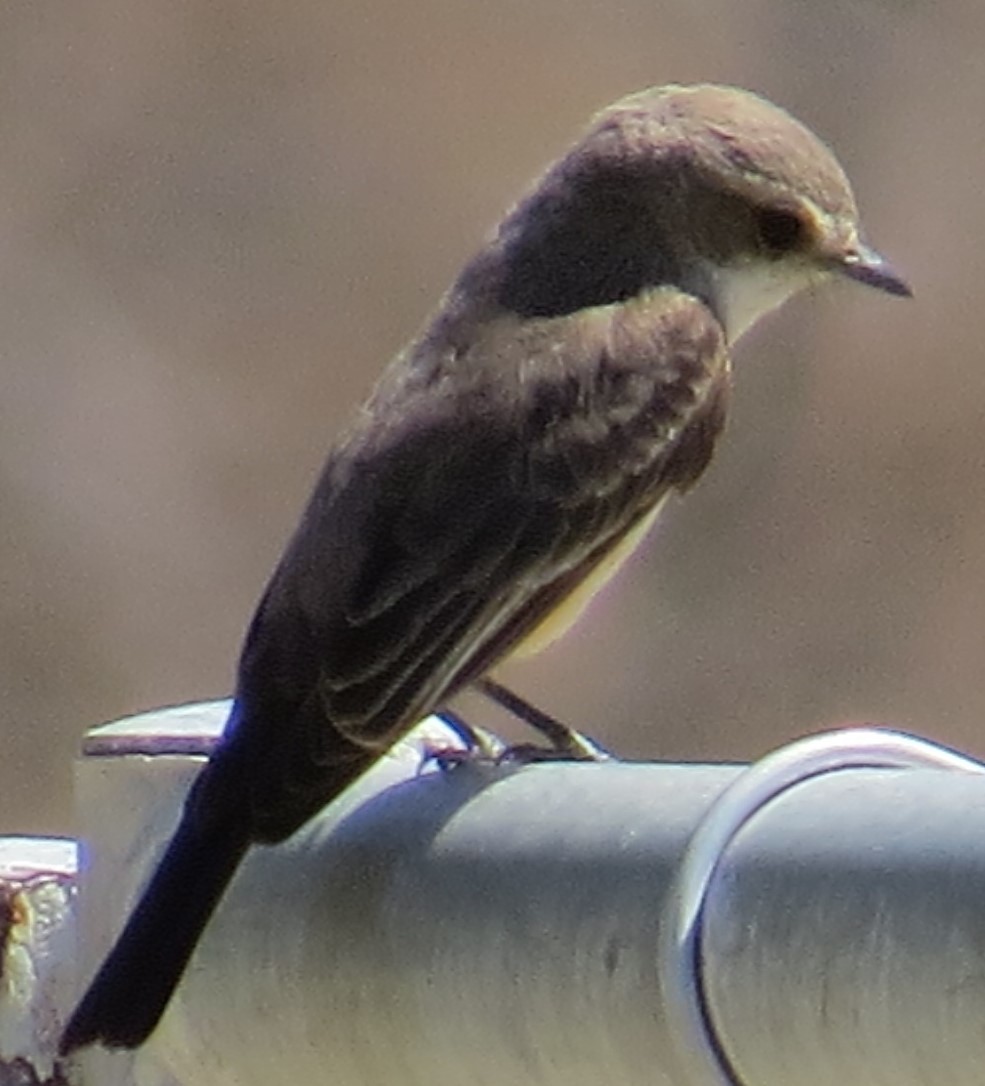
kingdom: Animalia
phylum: Chordata
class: Aves
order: Passeriformes
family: Tyrannidae
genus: Pyrocephalus
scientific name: Pyrocephalus rubinus
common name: Vermilion flycatcher
